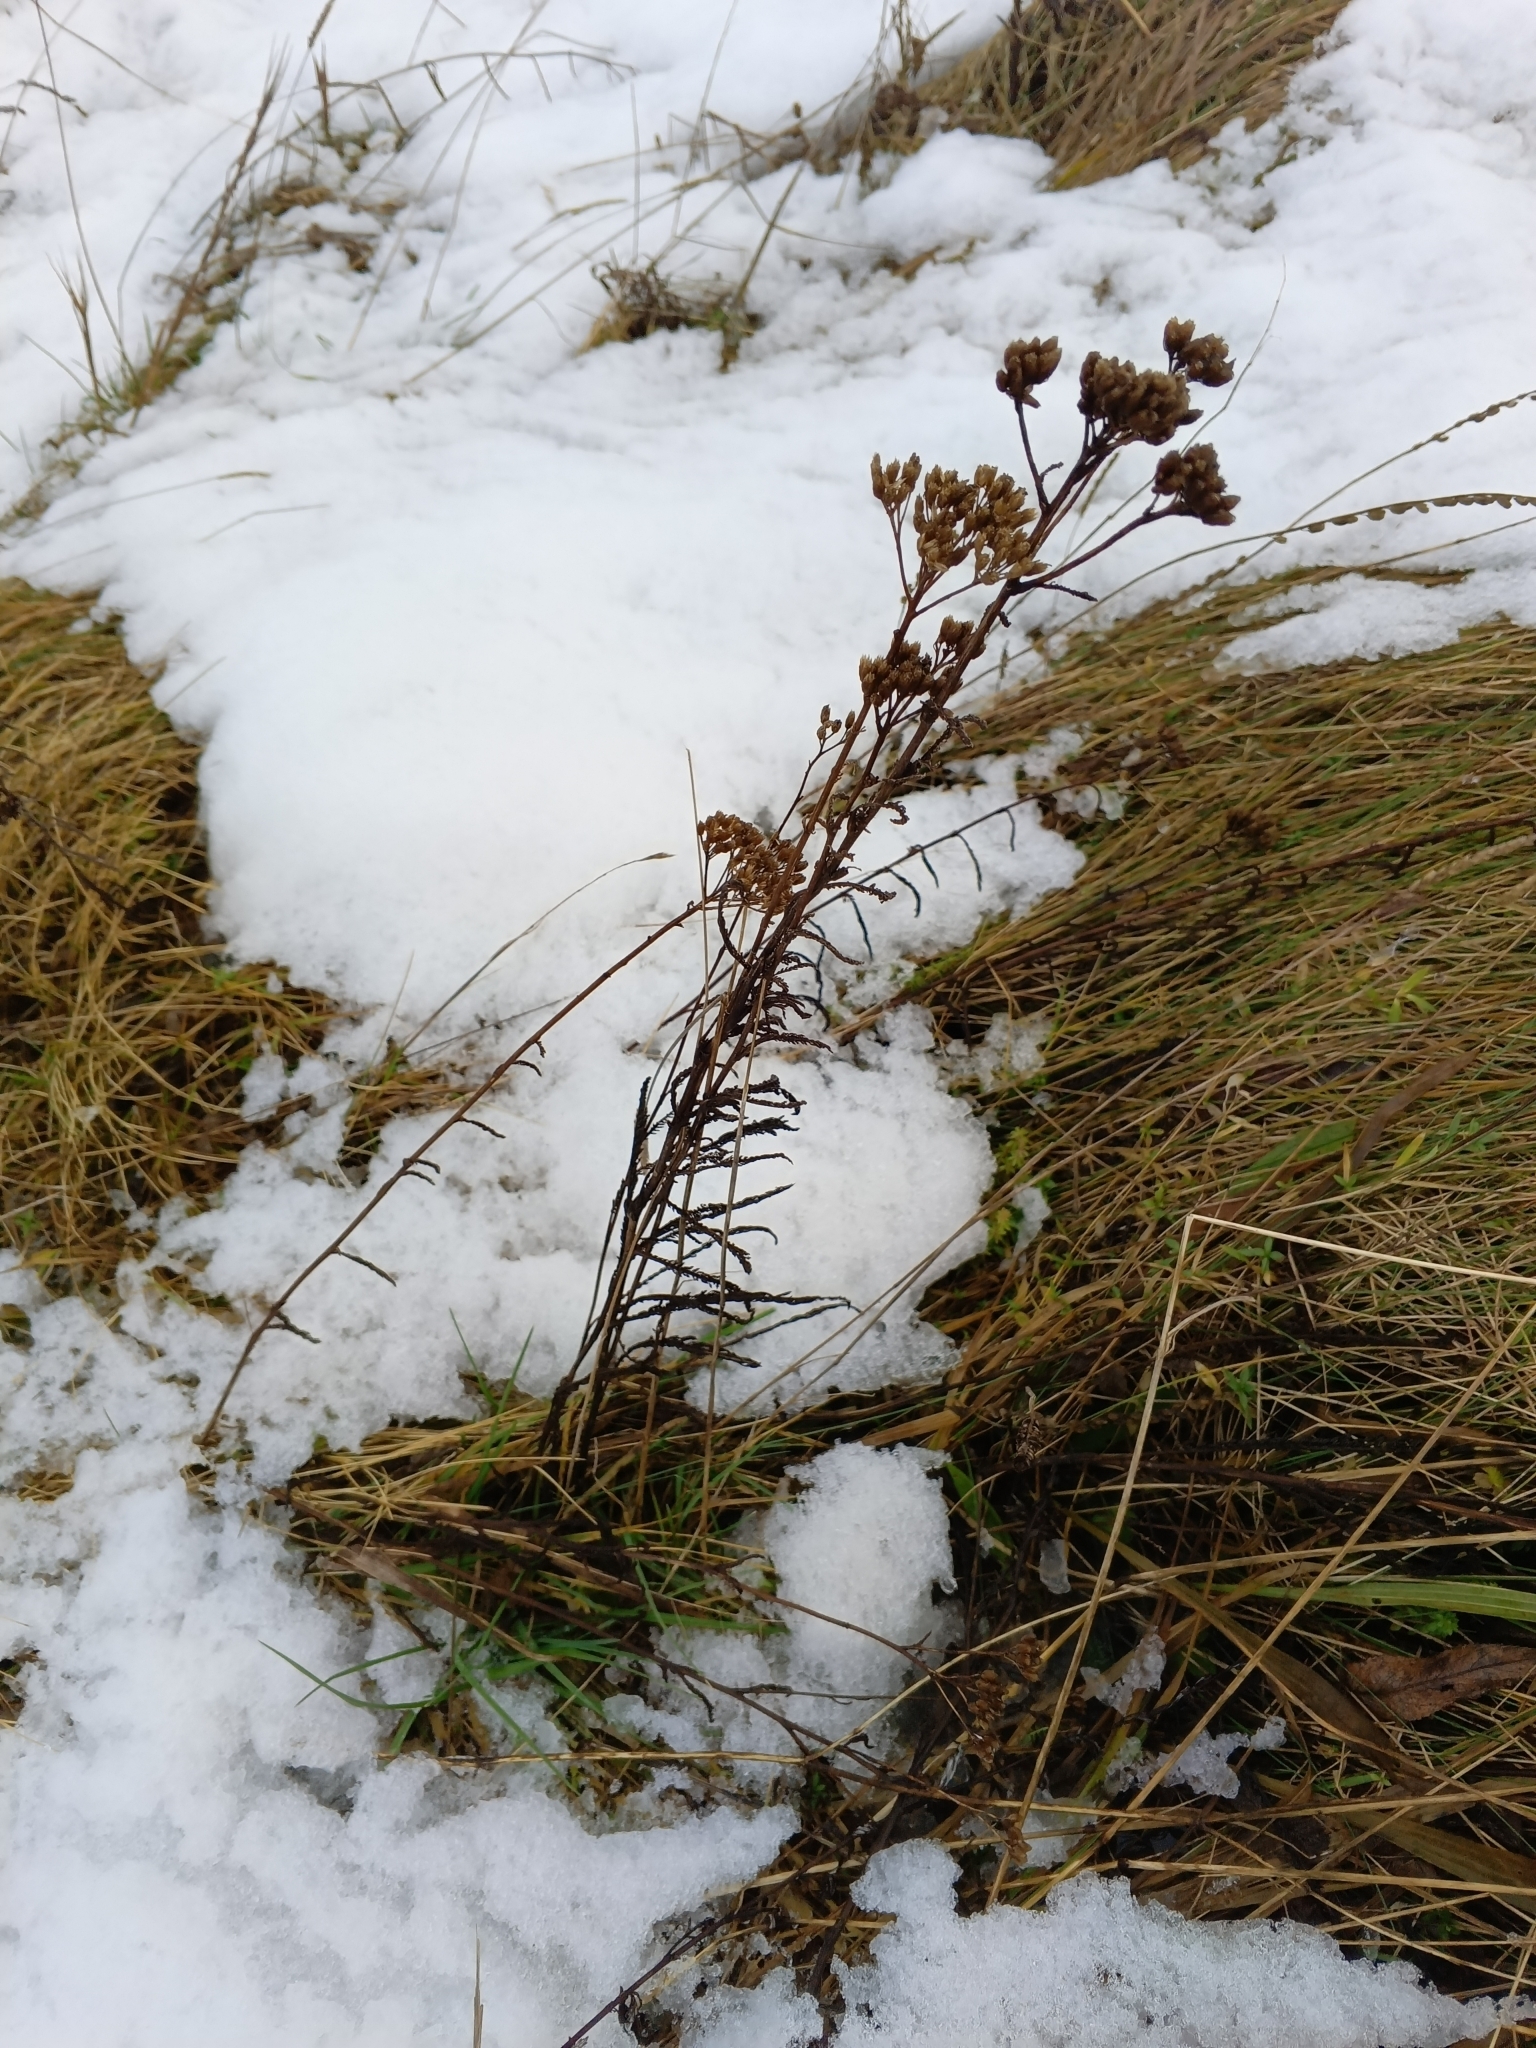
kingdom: Plantae
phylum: Tracheophyta
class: Magnoliopsida
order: Asterales
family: Asteraceae
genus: Achillea
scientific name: Achillea millefolium
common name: Yarrow
